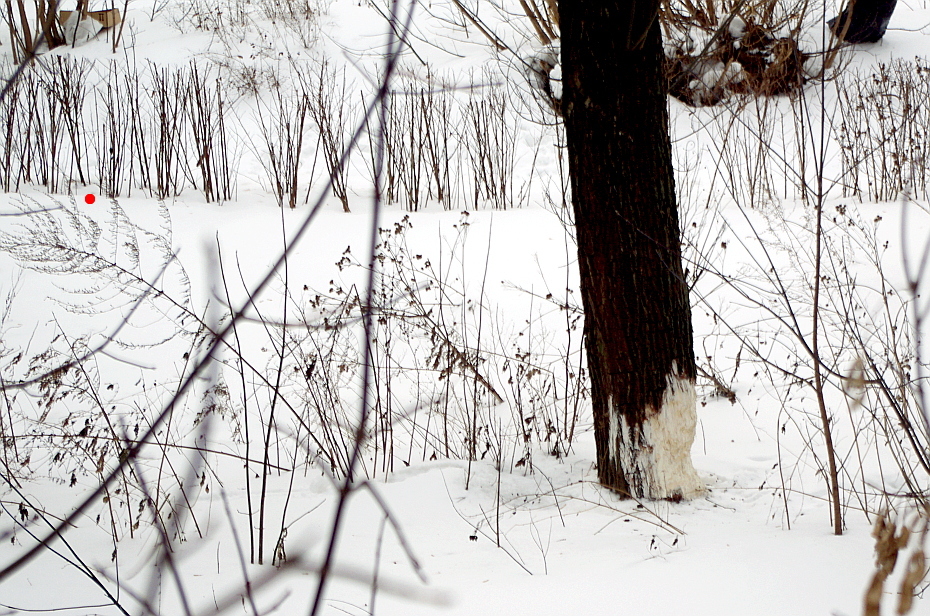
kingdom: Plantae
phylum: Tracheophyta
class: Magnoliopsida
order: Asterales
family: Asteraceae
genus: Artemisia
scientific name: Artemisia vulgaris
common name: Mugwort
